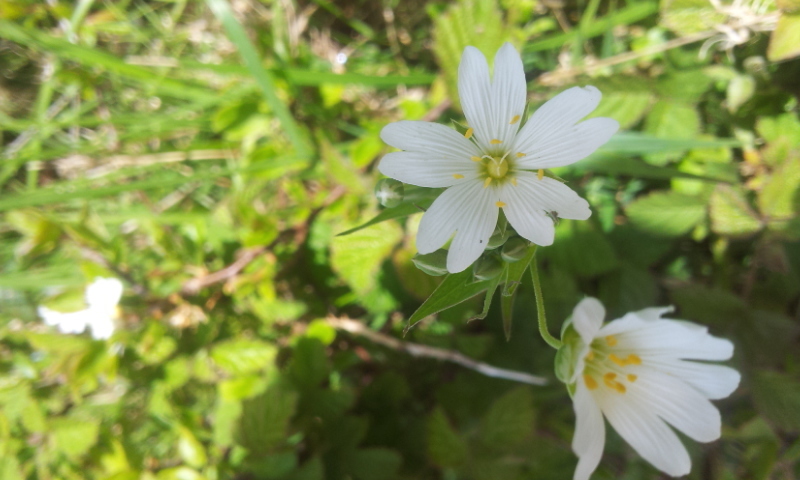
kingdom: Plantae
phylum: Tracheophyta
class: Magnoliopsida
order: Caryophyllales
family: Caryophyllaceae
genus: Rabelera
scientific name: Rabelera holostea
